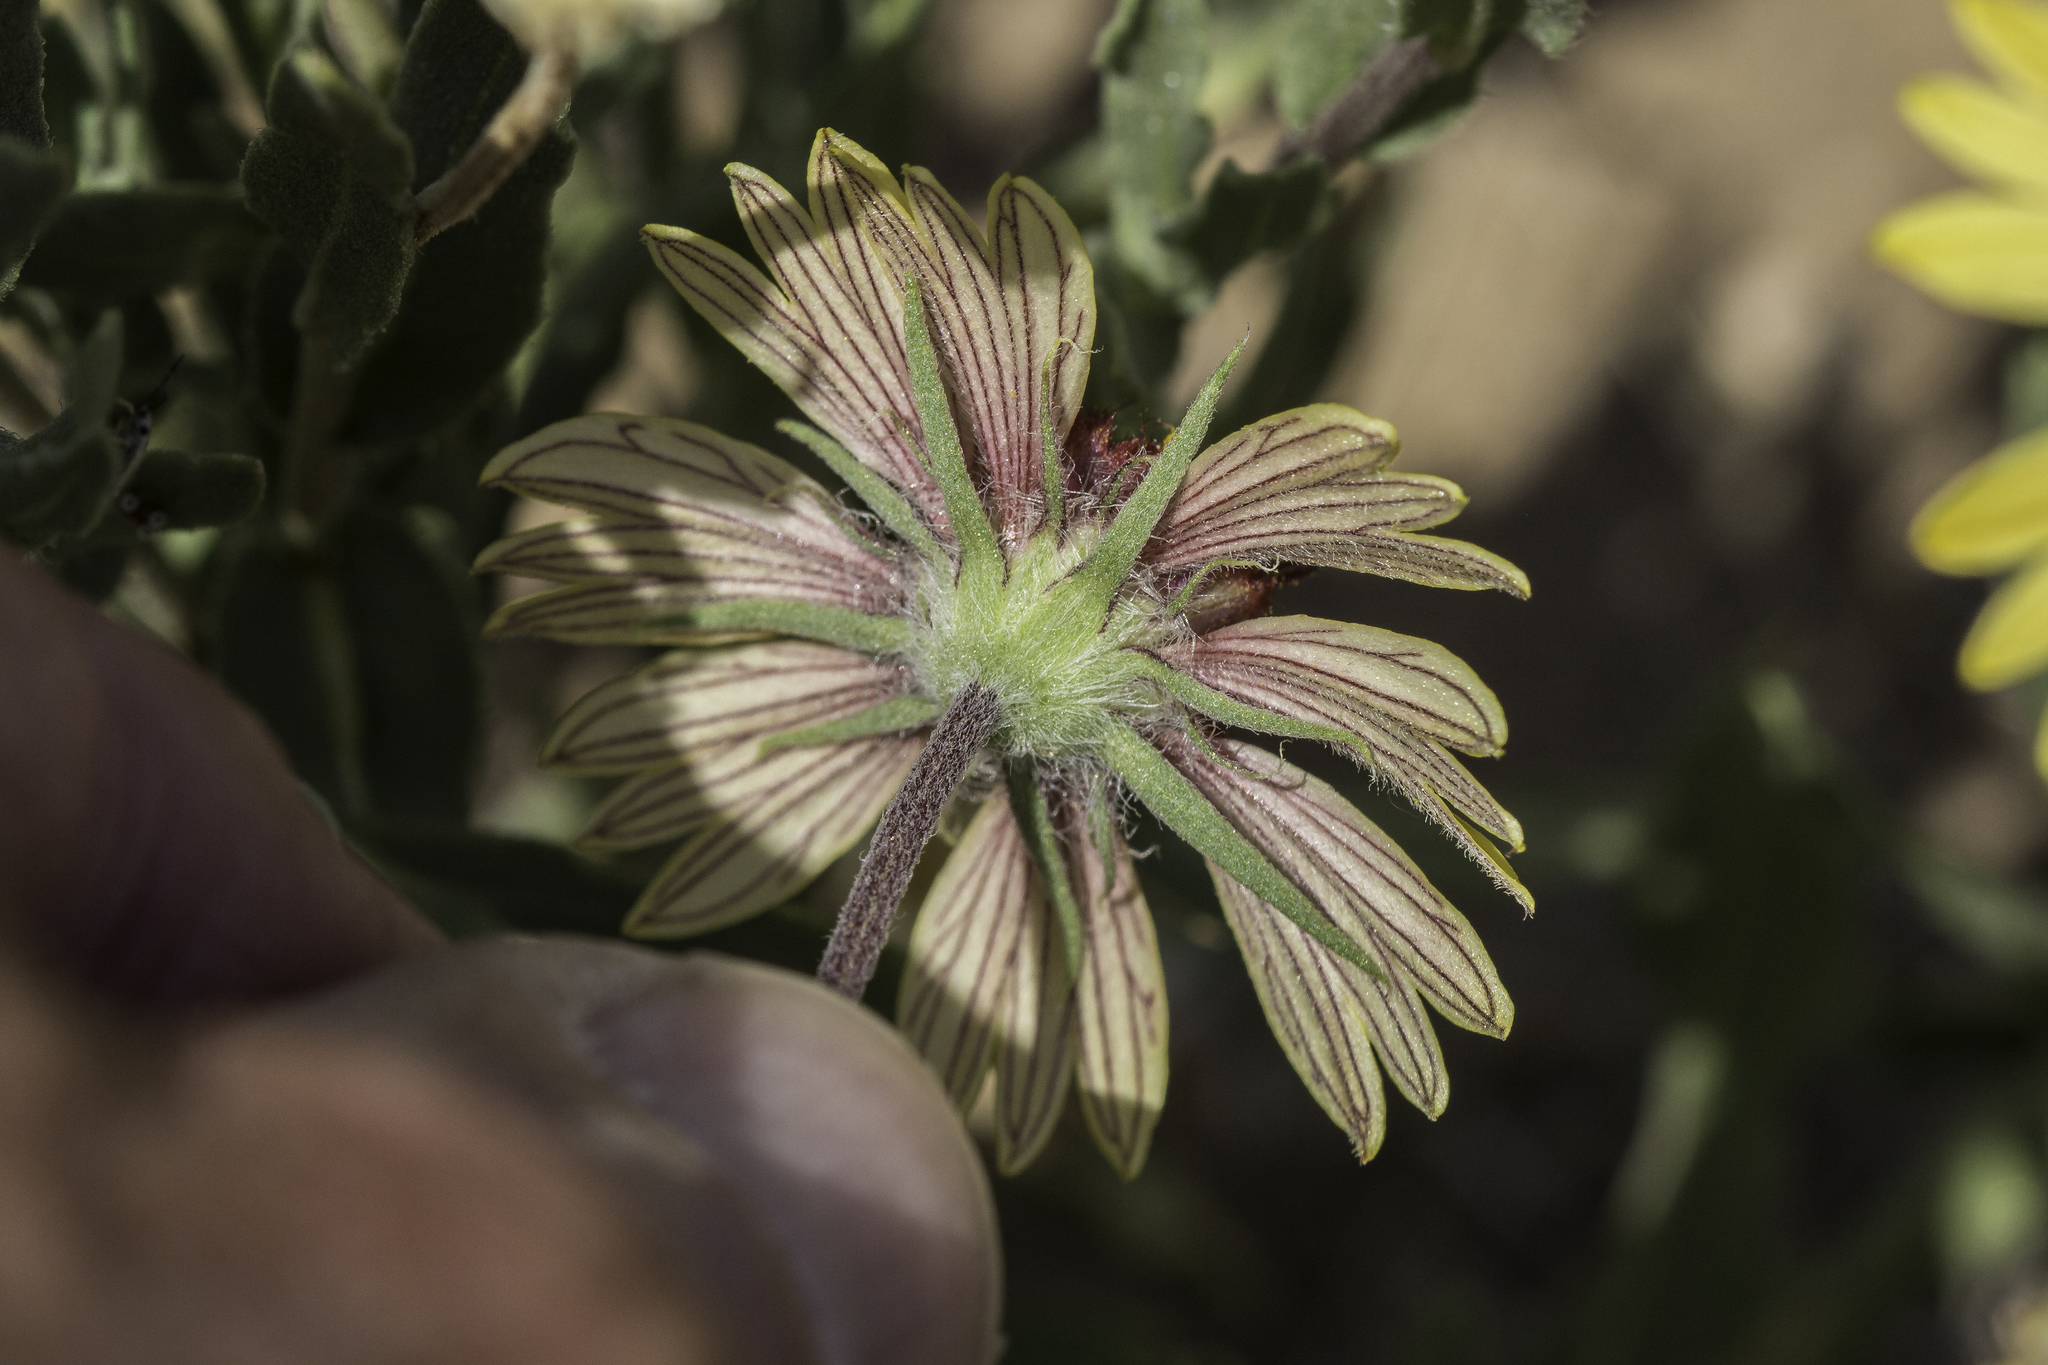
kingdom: Plantae
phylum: Tracheophyta
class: Magnoliopsida
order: Asterales
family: Asteraceae
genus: Gaillardia
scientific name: Gaillardia pulchella
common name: Firewheel
